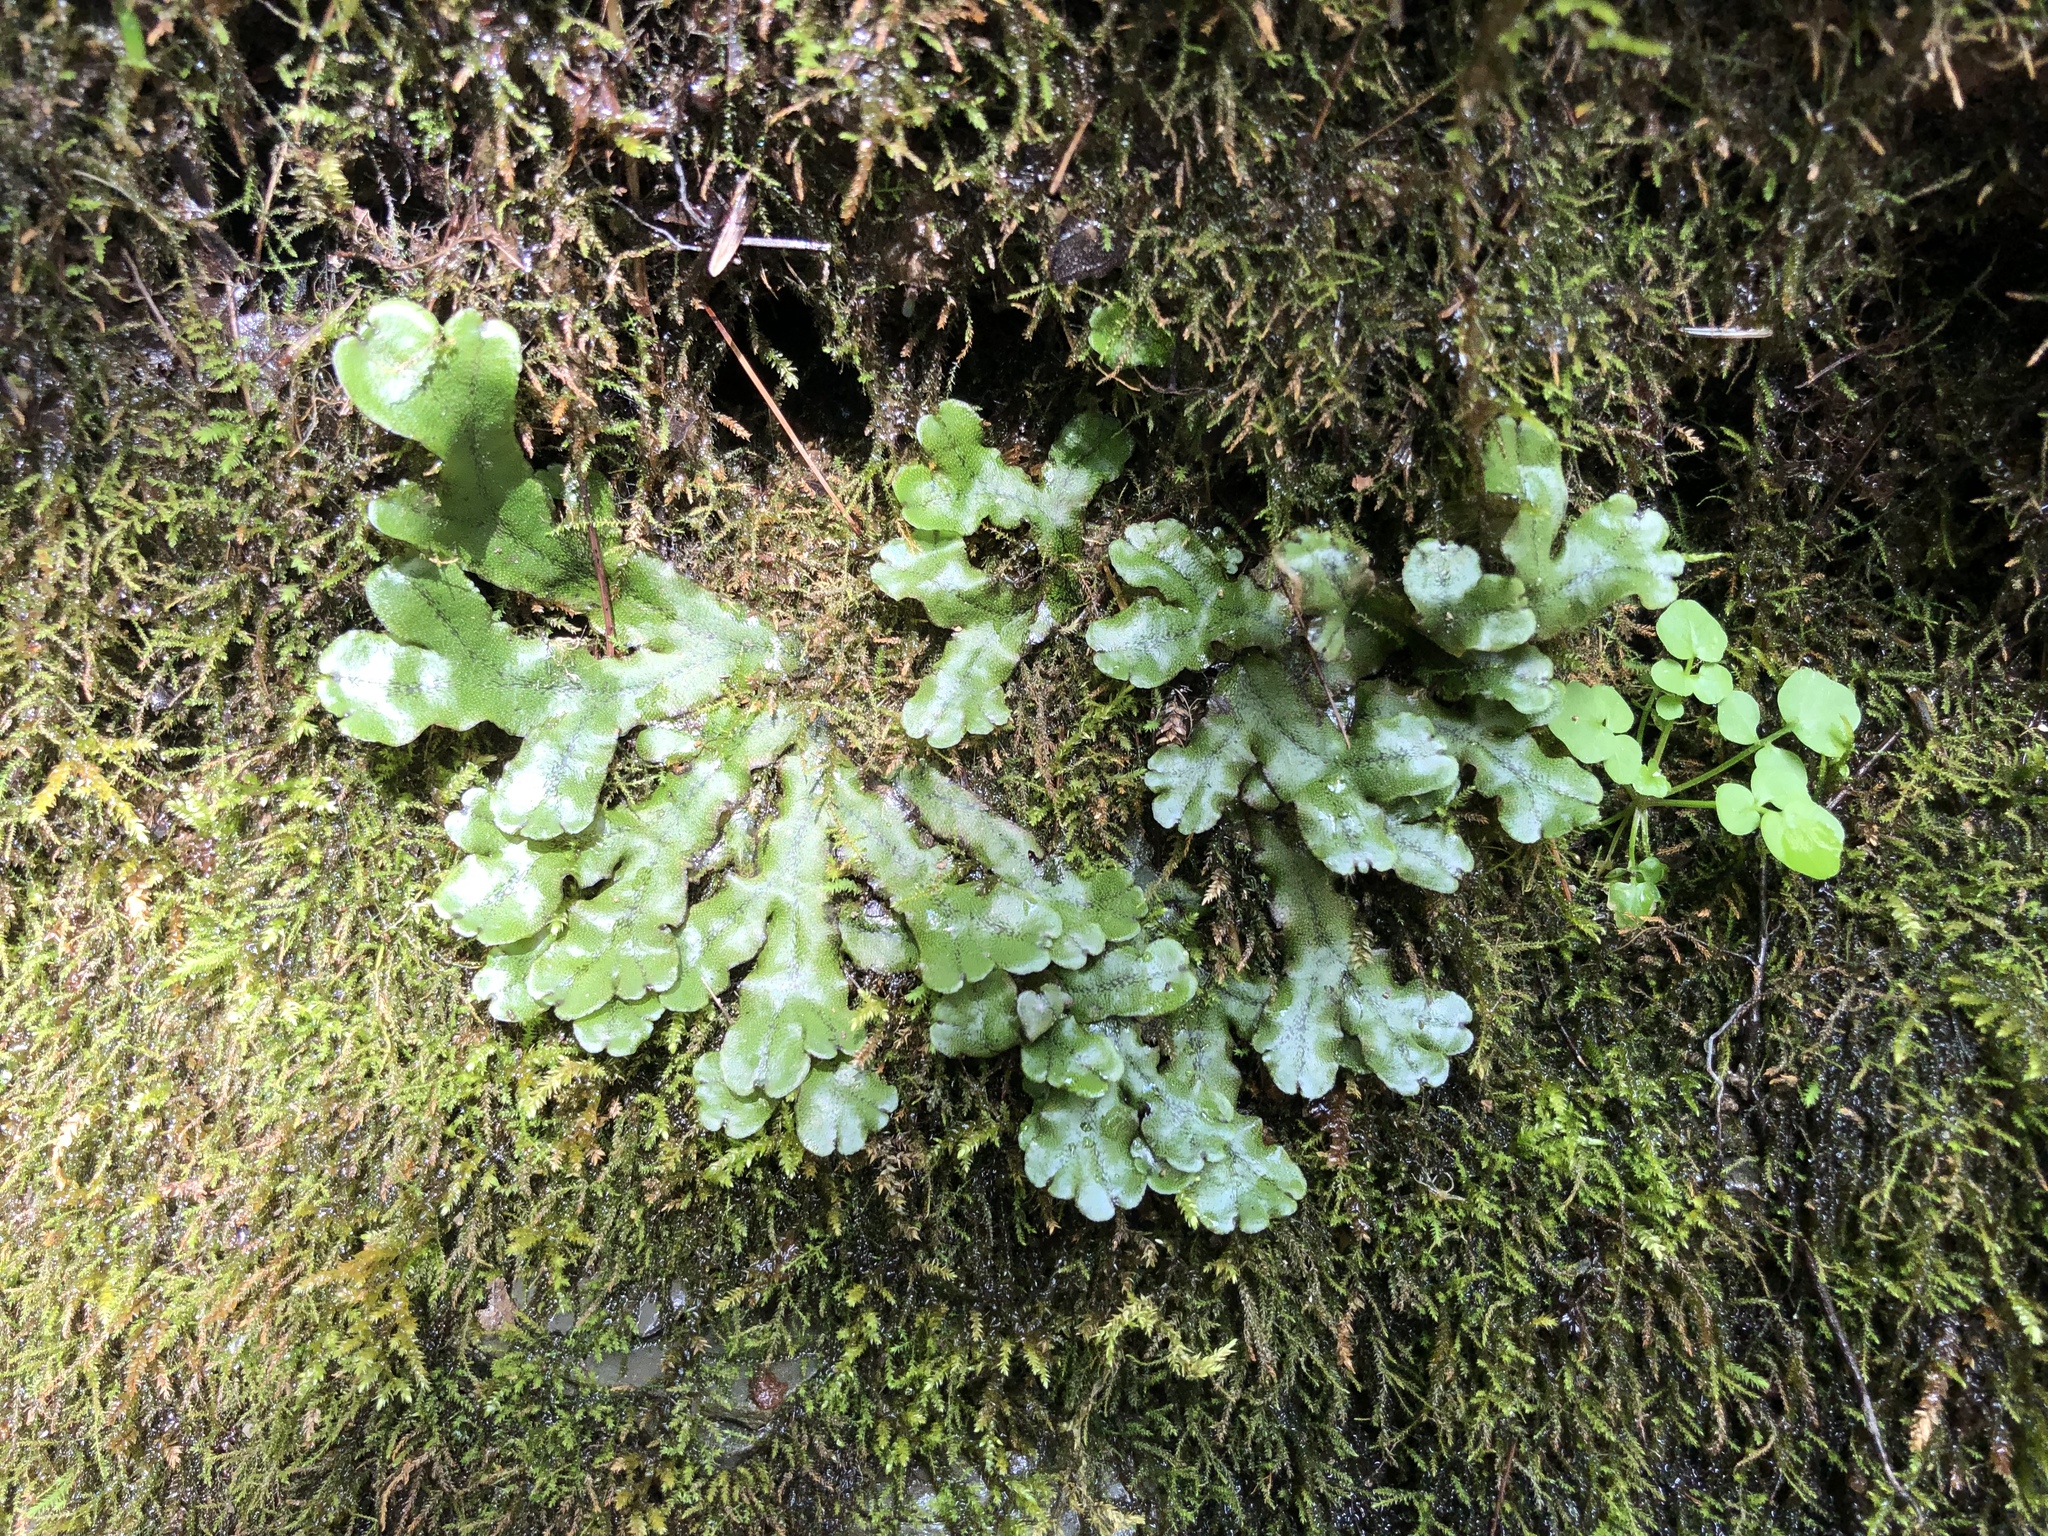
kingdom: Plantae
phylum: Marchantiophyta
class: Marchantiopsida
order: Marchantiales
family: Marchantiaceae
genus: Marchantia
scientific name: Marchantia polymorpha
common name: Common liverwort
